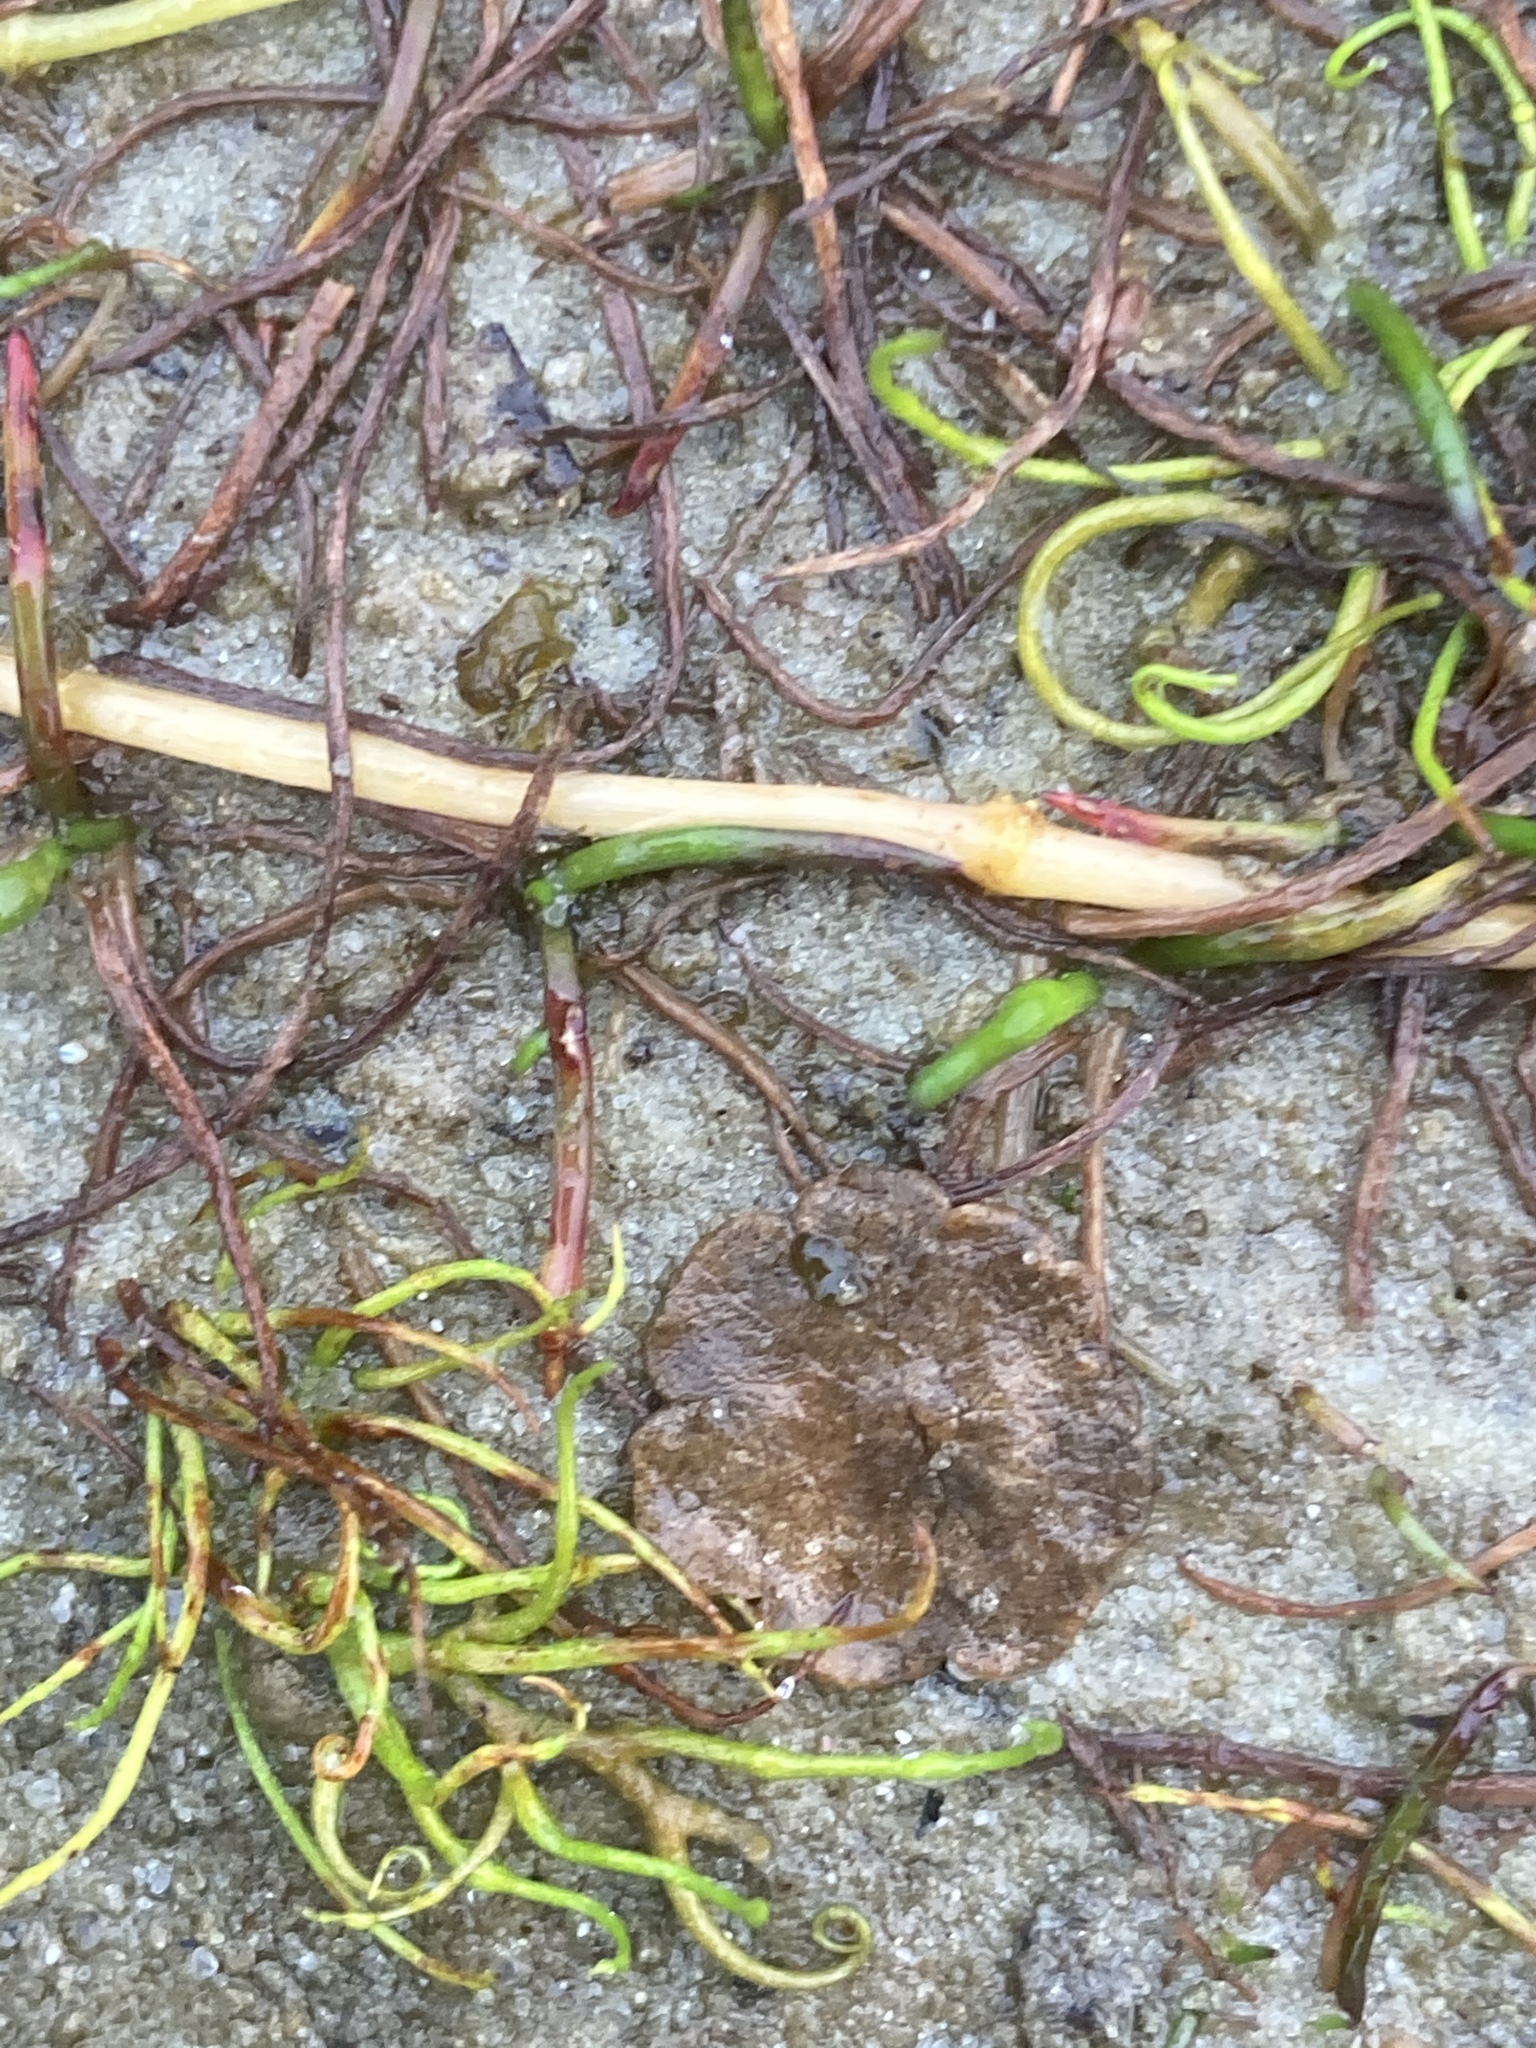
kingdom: Plantae
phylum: Tracheophyta
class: Polypodiopsida
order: Salviniales
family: Marsileaceae
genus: Pilularia
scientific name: Pilularia globulifera
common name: Pillwort
